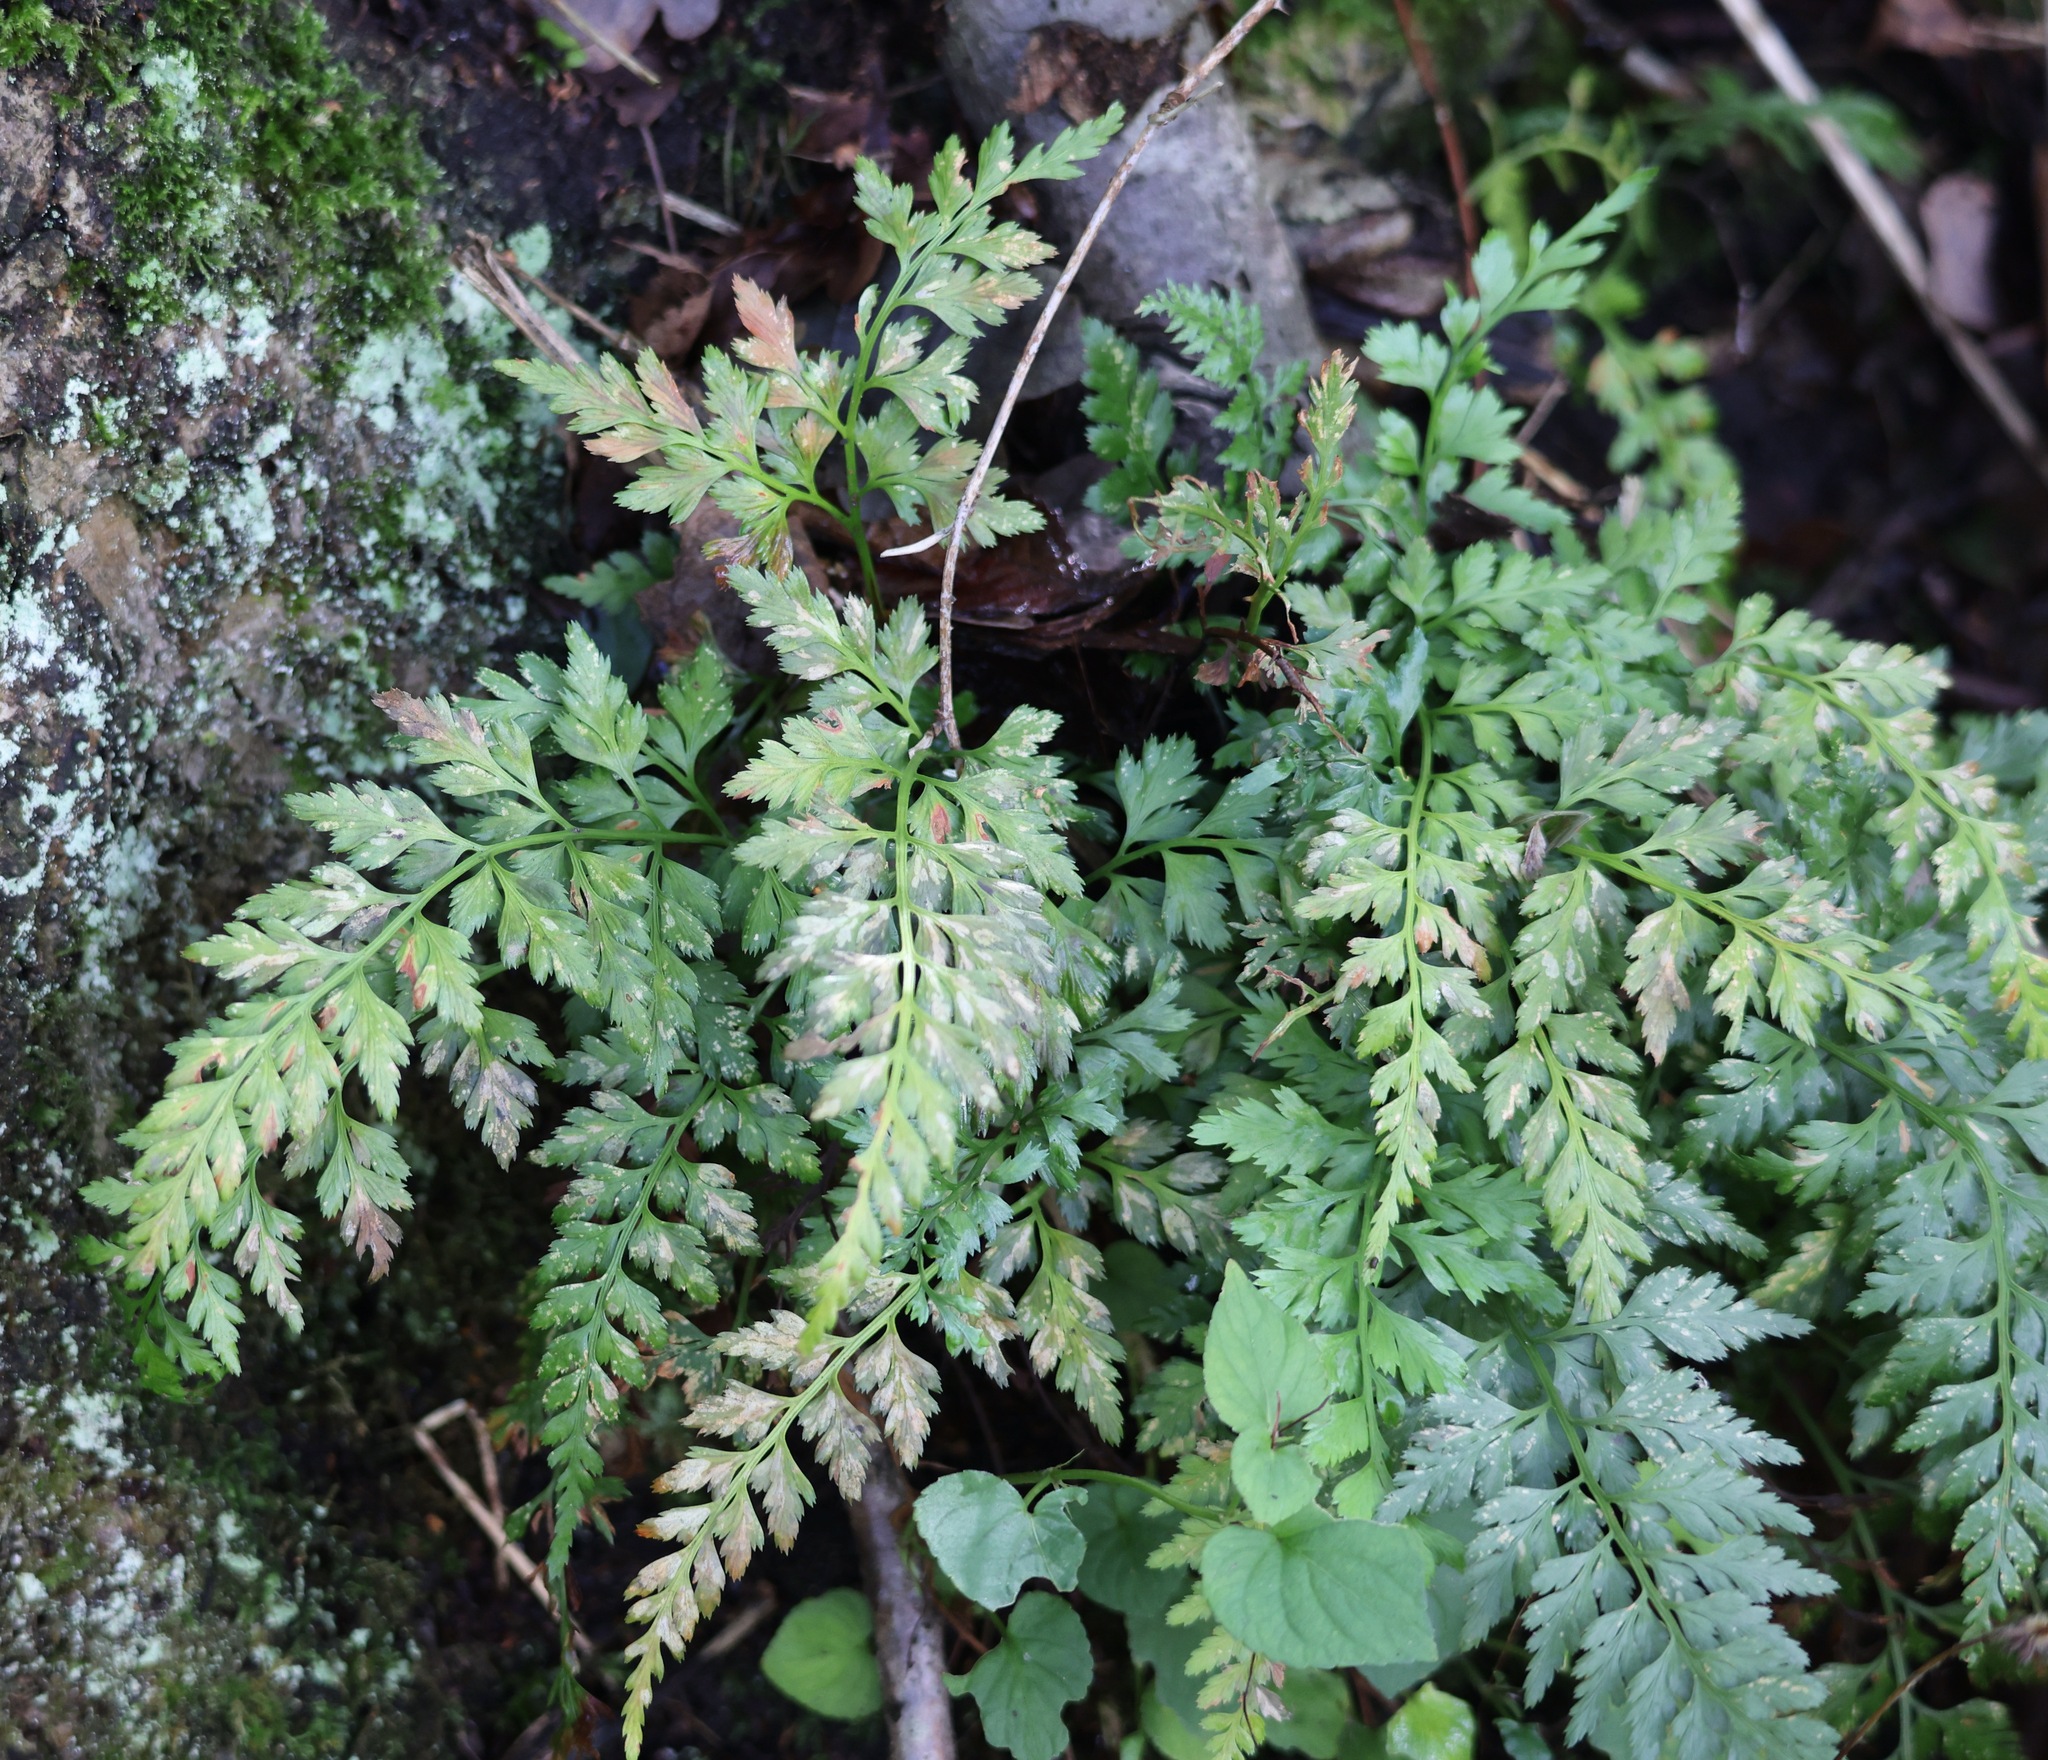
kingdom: Plantae
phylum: Tracheophyta
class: Polypodiopsida
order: Polypodiales
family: Aspleniaceae
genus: Asplenium
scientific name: Asplenium adiantum-nigrum
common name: Black spleenwort
